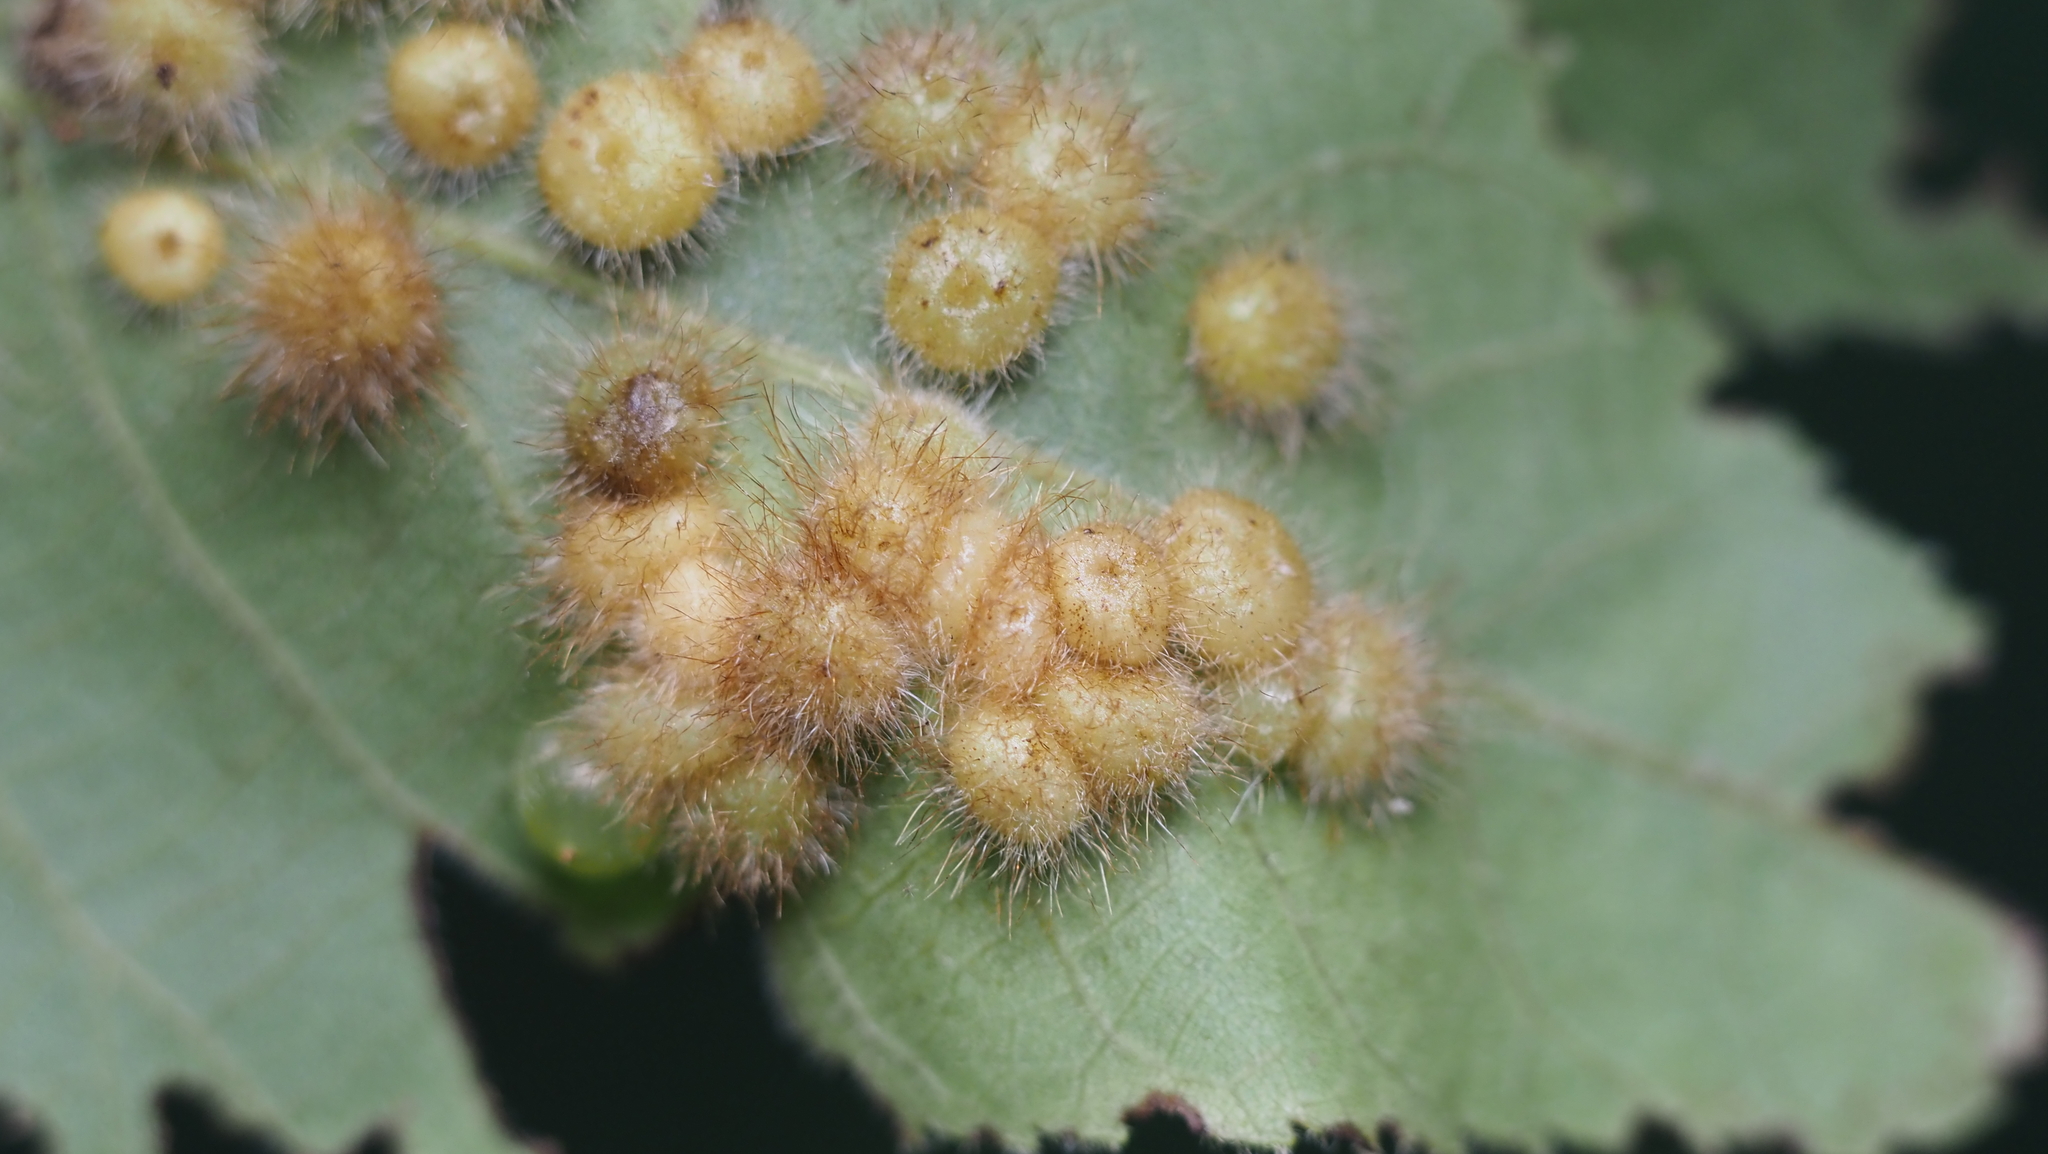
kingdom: Animalia
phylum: Arthropoda
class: Insecta
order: Diptera
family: Cecidomyiidae
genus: Caryomyia
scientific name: Caryomyia thompsoni
